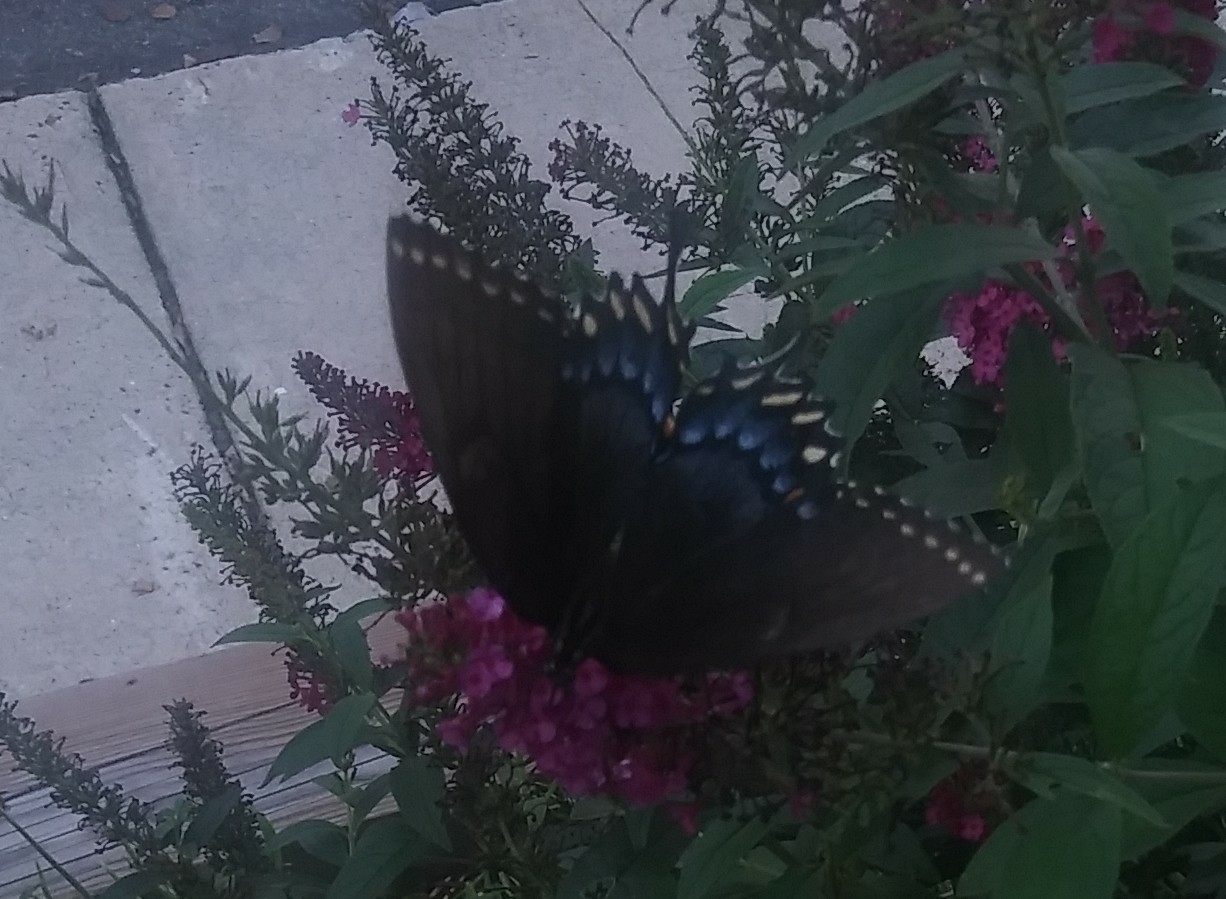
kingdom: Animalia
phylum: Arthropoda
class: Insecta
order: Lepidoptera
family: Papilionidae
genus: Papilio
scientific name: Papilio glaucus
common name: Tiger swallowtail
